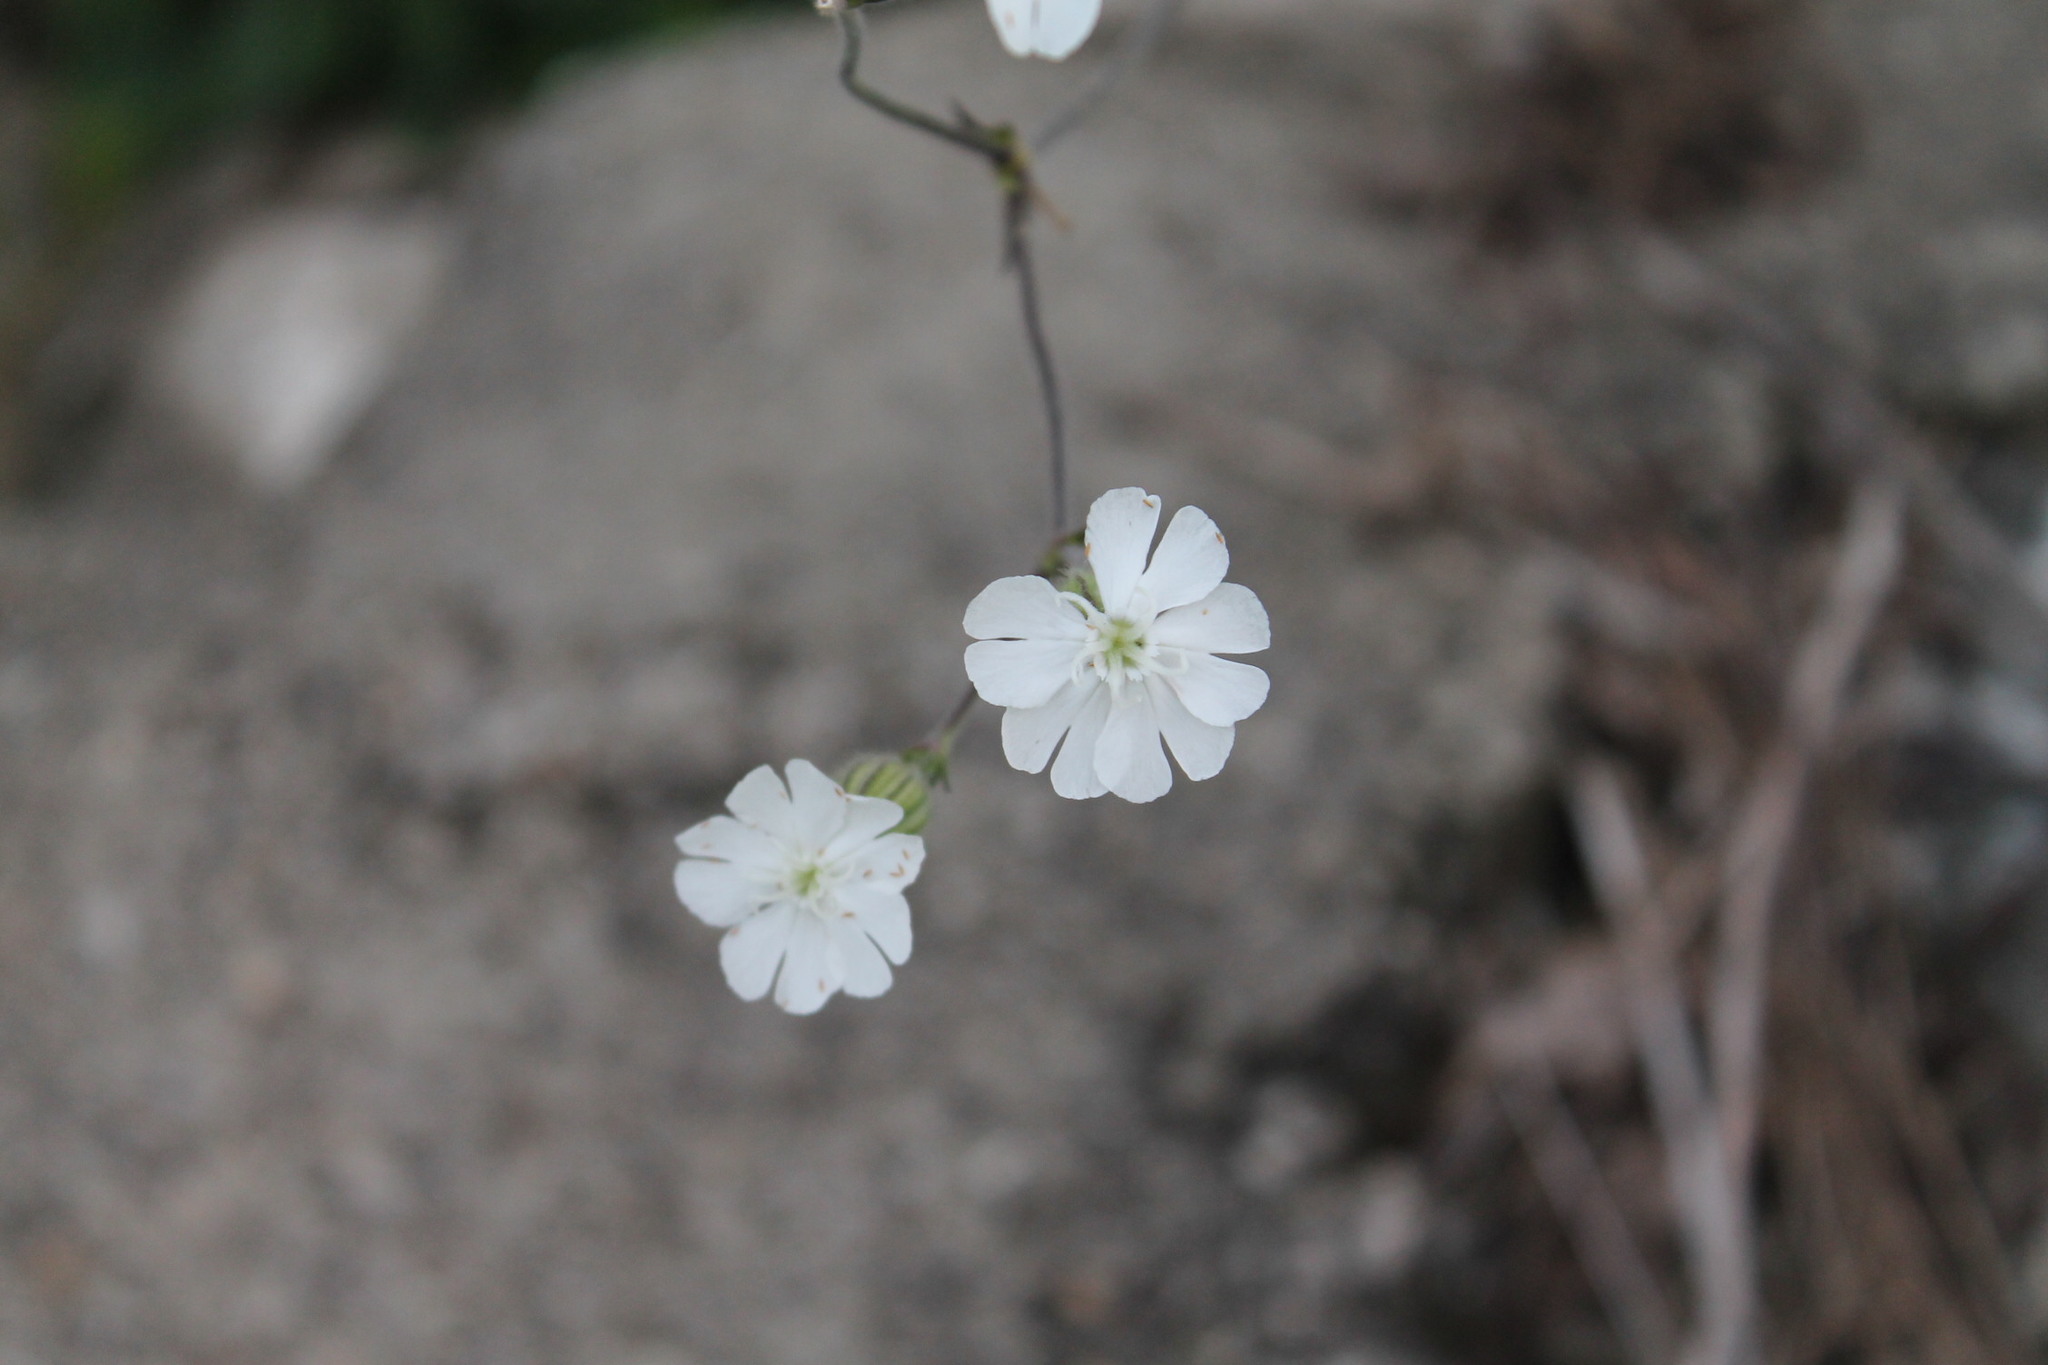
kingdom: Plantae
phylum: Tracheophyta
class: Magnoliopsida
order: Caryophyllales
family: Caryophyllaceae
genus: Silene
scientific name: Silene latifolia
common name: White campion
